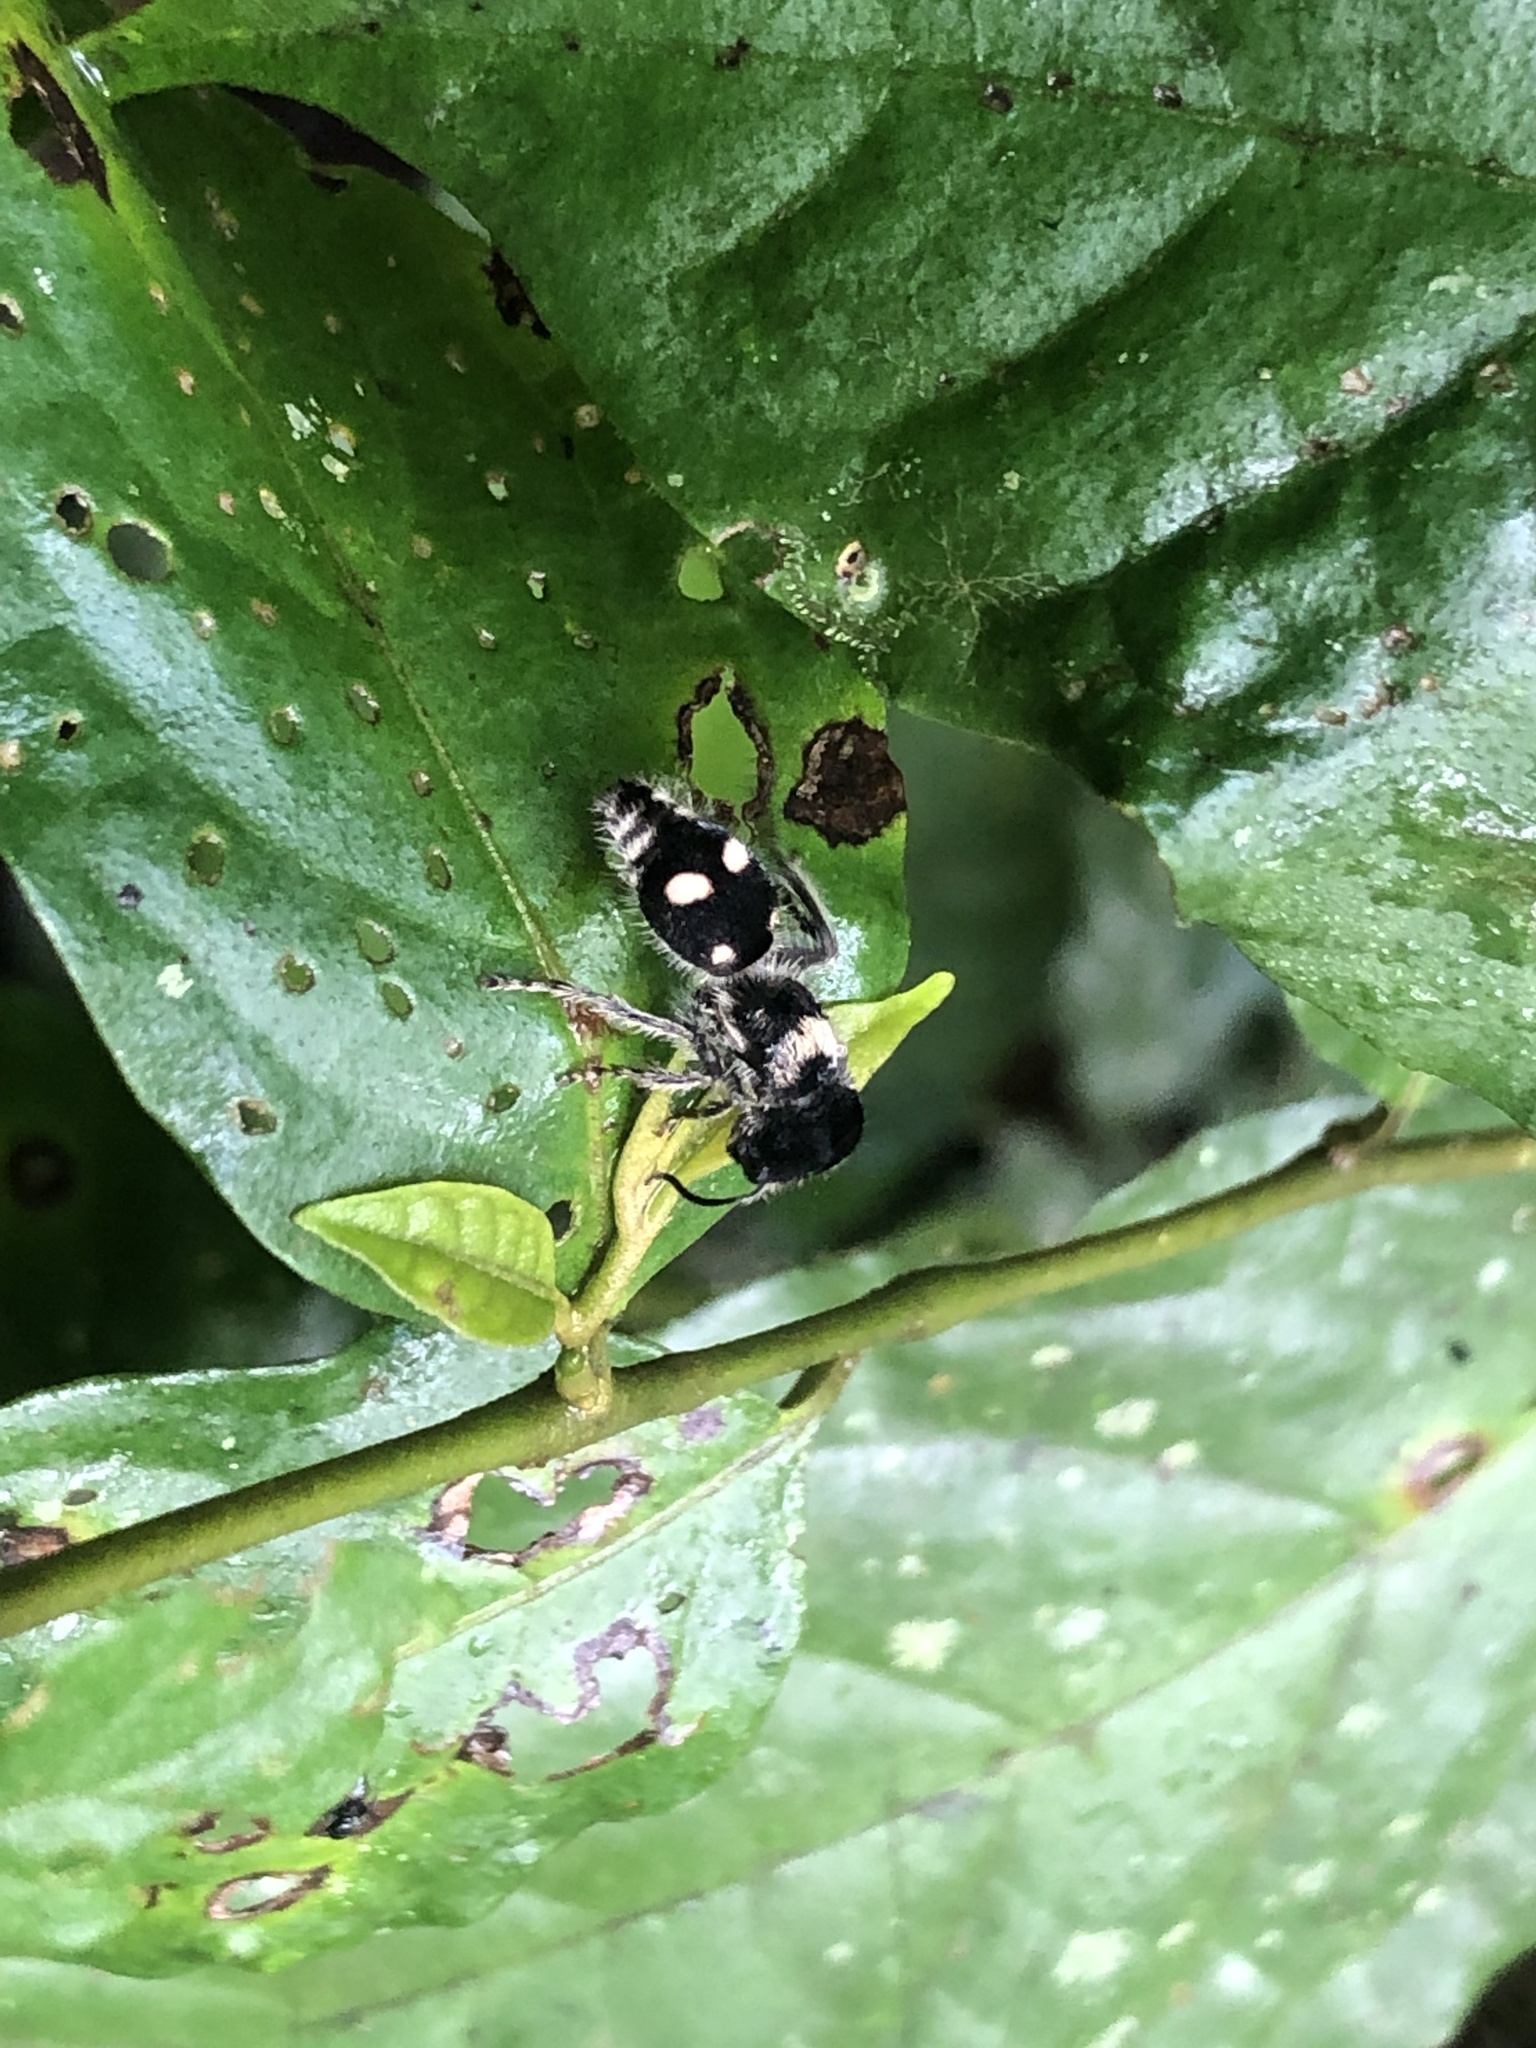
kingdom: Animalia
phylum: Arthropoda
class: Insecta
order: Hymenoptera
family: Mutillidae
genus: Pseudomethoca
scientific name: Pseudomethoca
